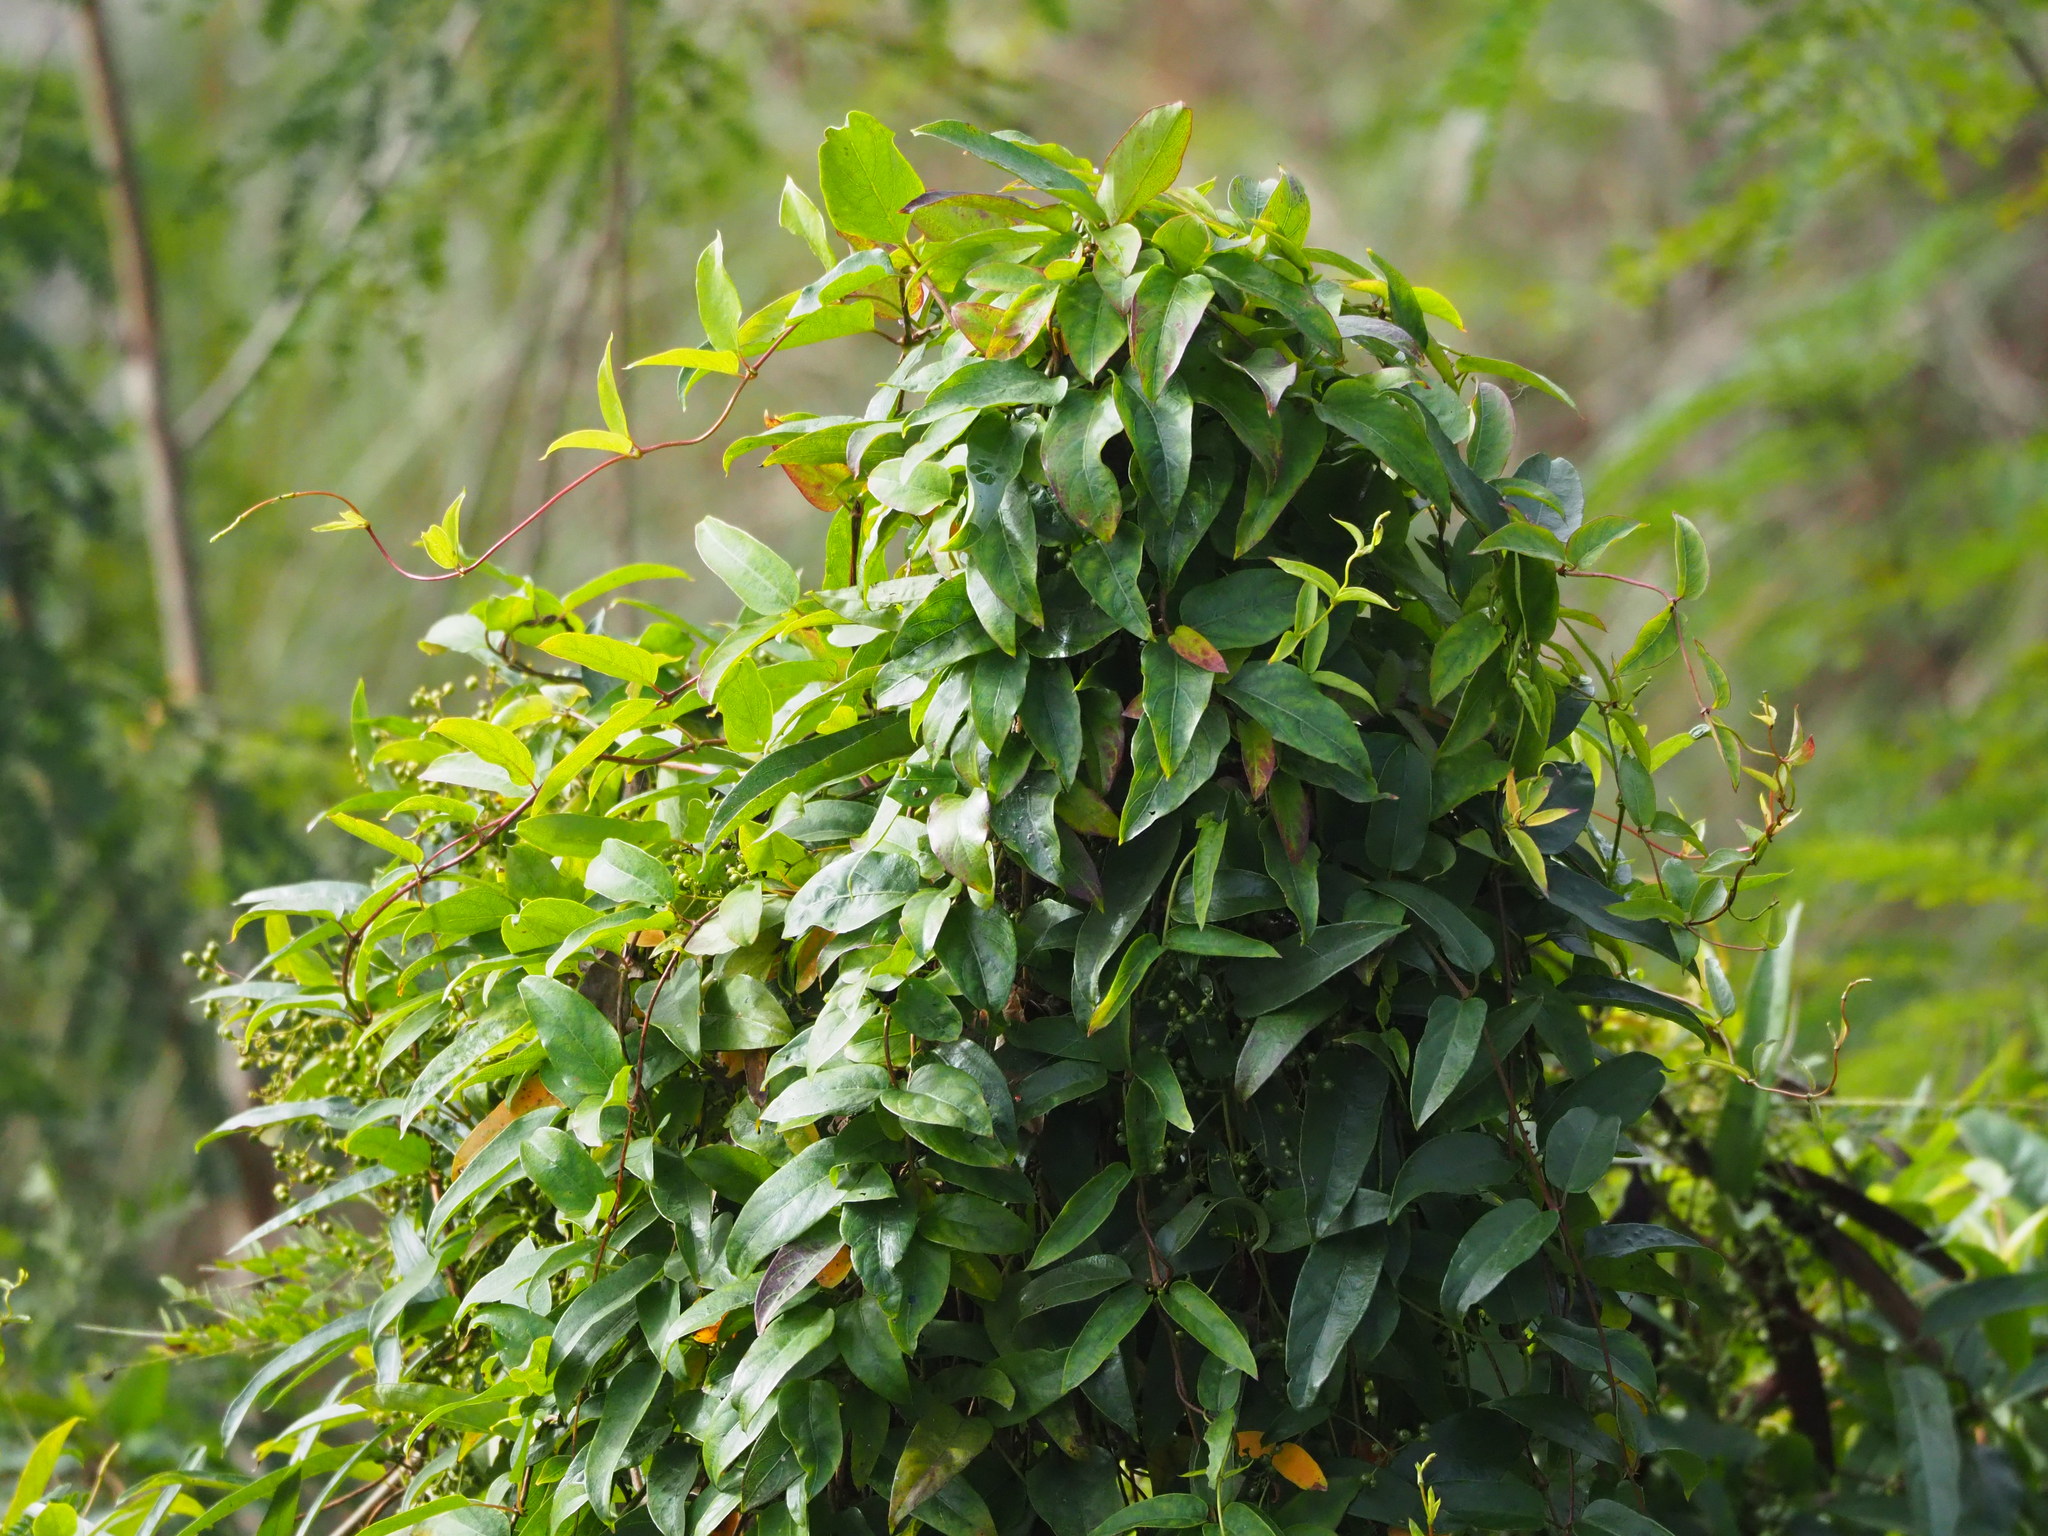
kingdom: Plantae
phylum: Tracheophyta
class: Magnoliopsida
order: Gentianales
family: Rubiaceae
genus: Paederia
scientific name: Paederia foetida
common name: Stinkvine
